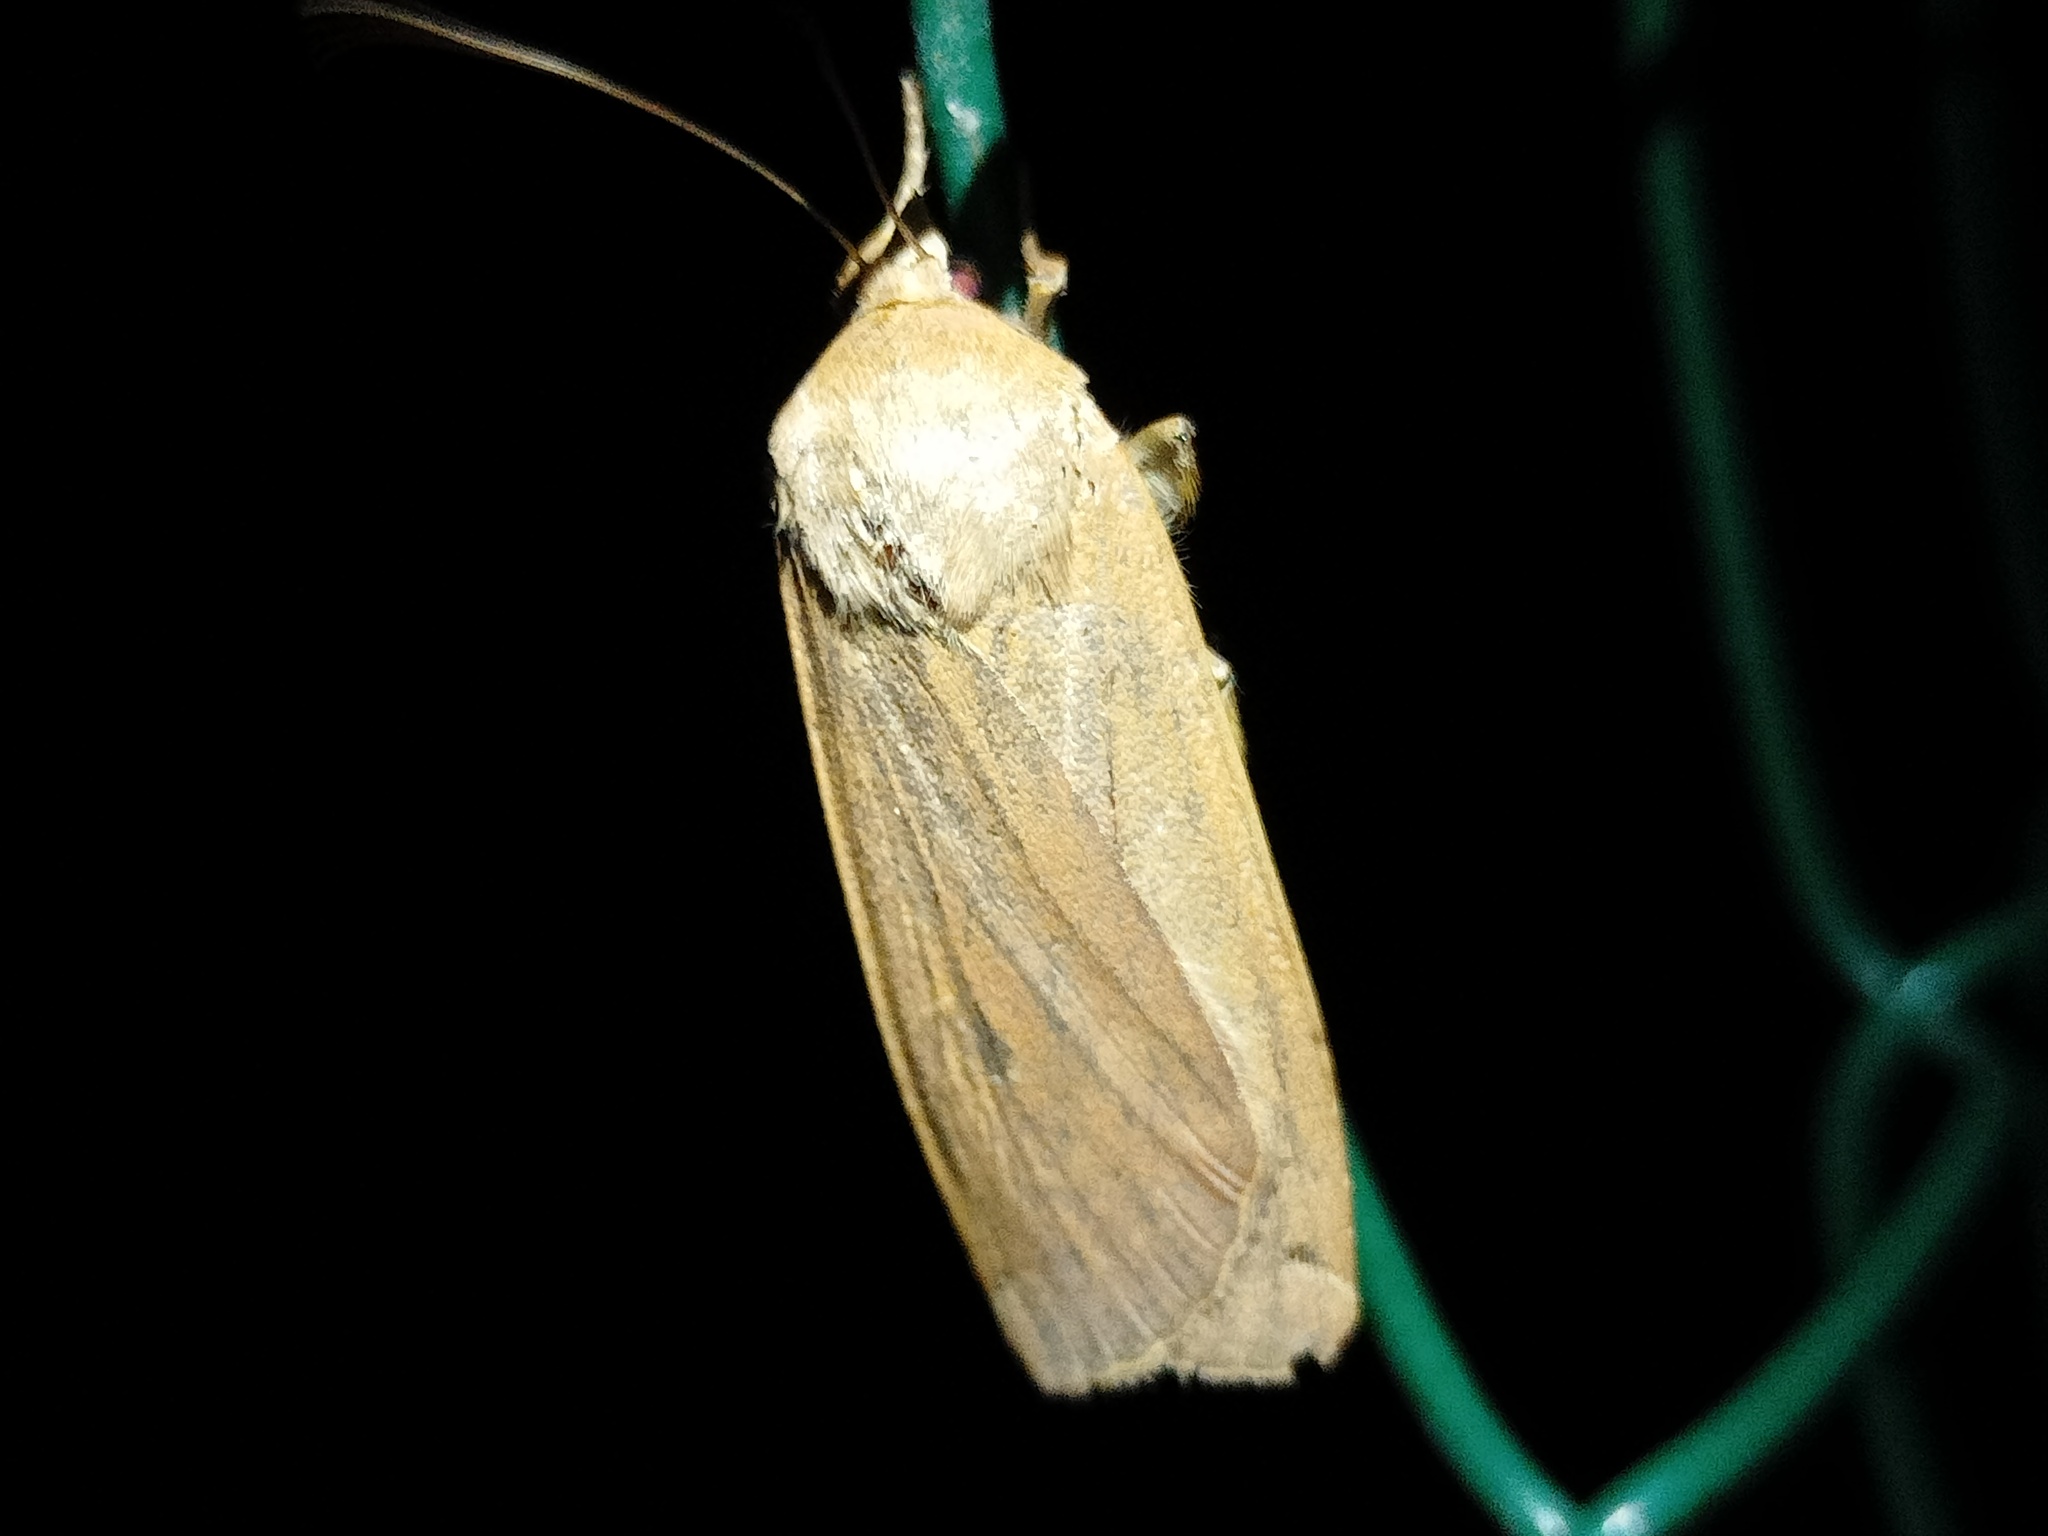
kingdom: Animalia
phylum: Arthropoda
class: Insecta
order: Lepidoptera
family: Noctuidae
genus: Noctua
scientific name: Noctua pronuba
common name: Large yellow underwing
